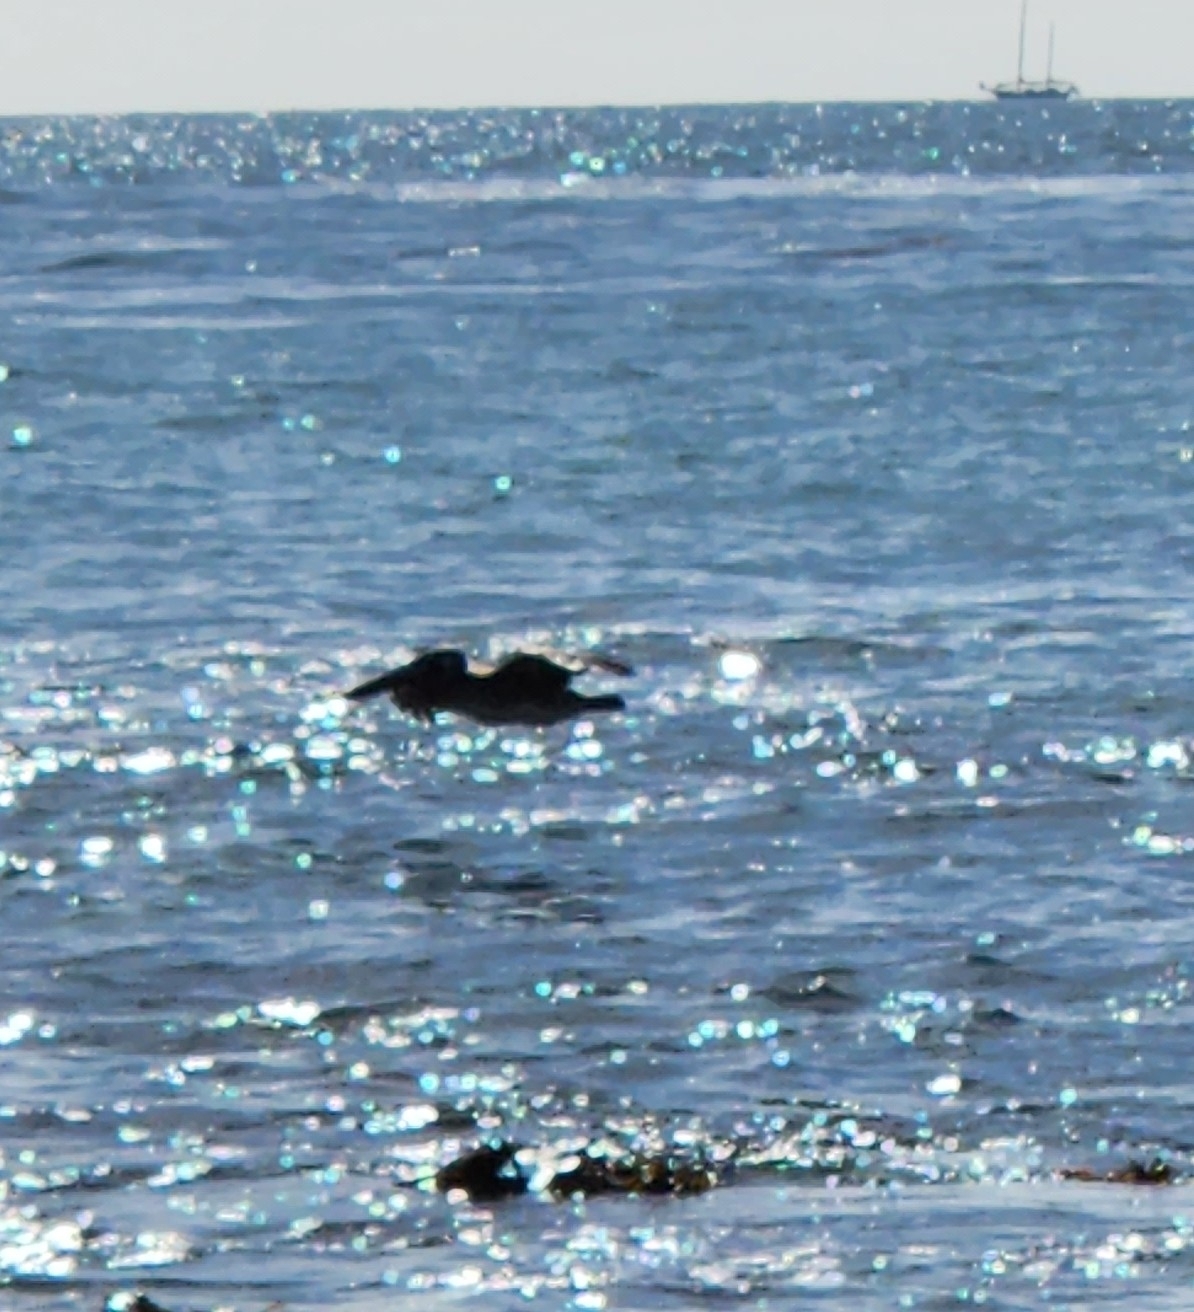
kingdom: Animalia
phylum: Chordata
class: Aves
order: Pelecaniformes
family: Pelecanidae
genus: Pelecanus
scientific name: Pelecanus occidentalis
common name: Brown pelican
